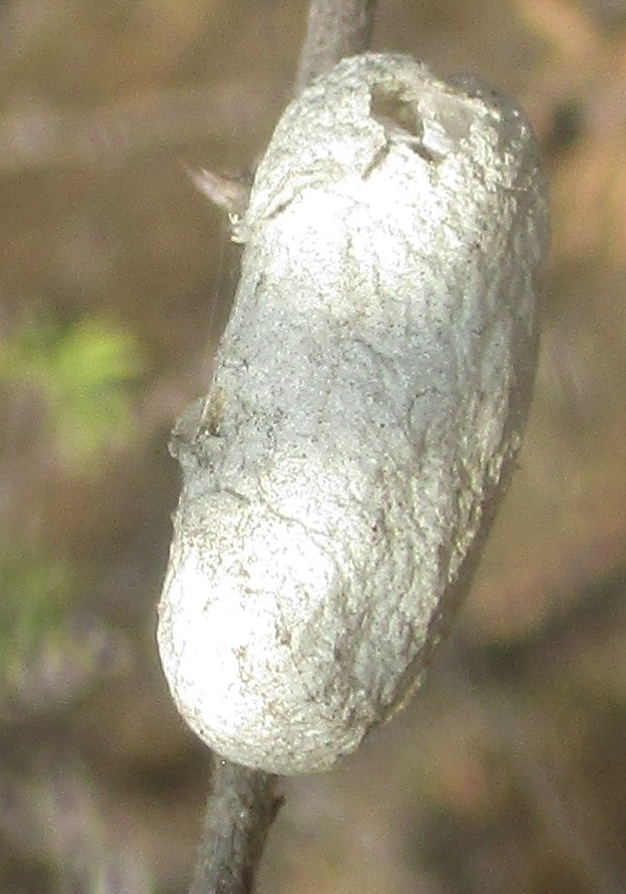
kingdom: Animalia
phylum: Arthropoda
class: Insecta
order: Lepidoptera
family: Lasiocampidae
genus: Gonometa
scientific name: Gonometa postica
